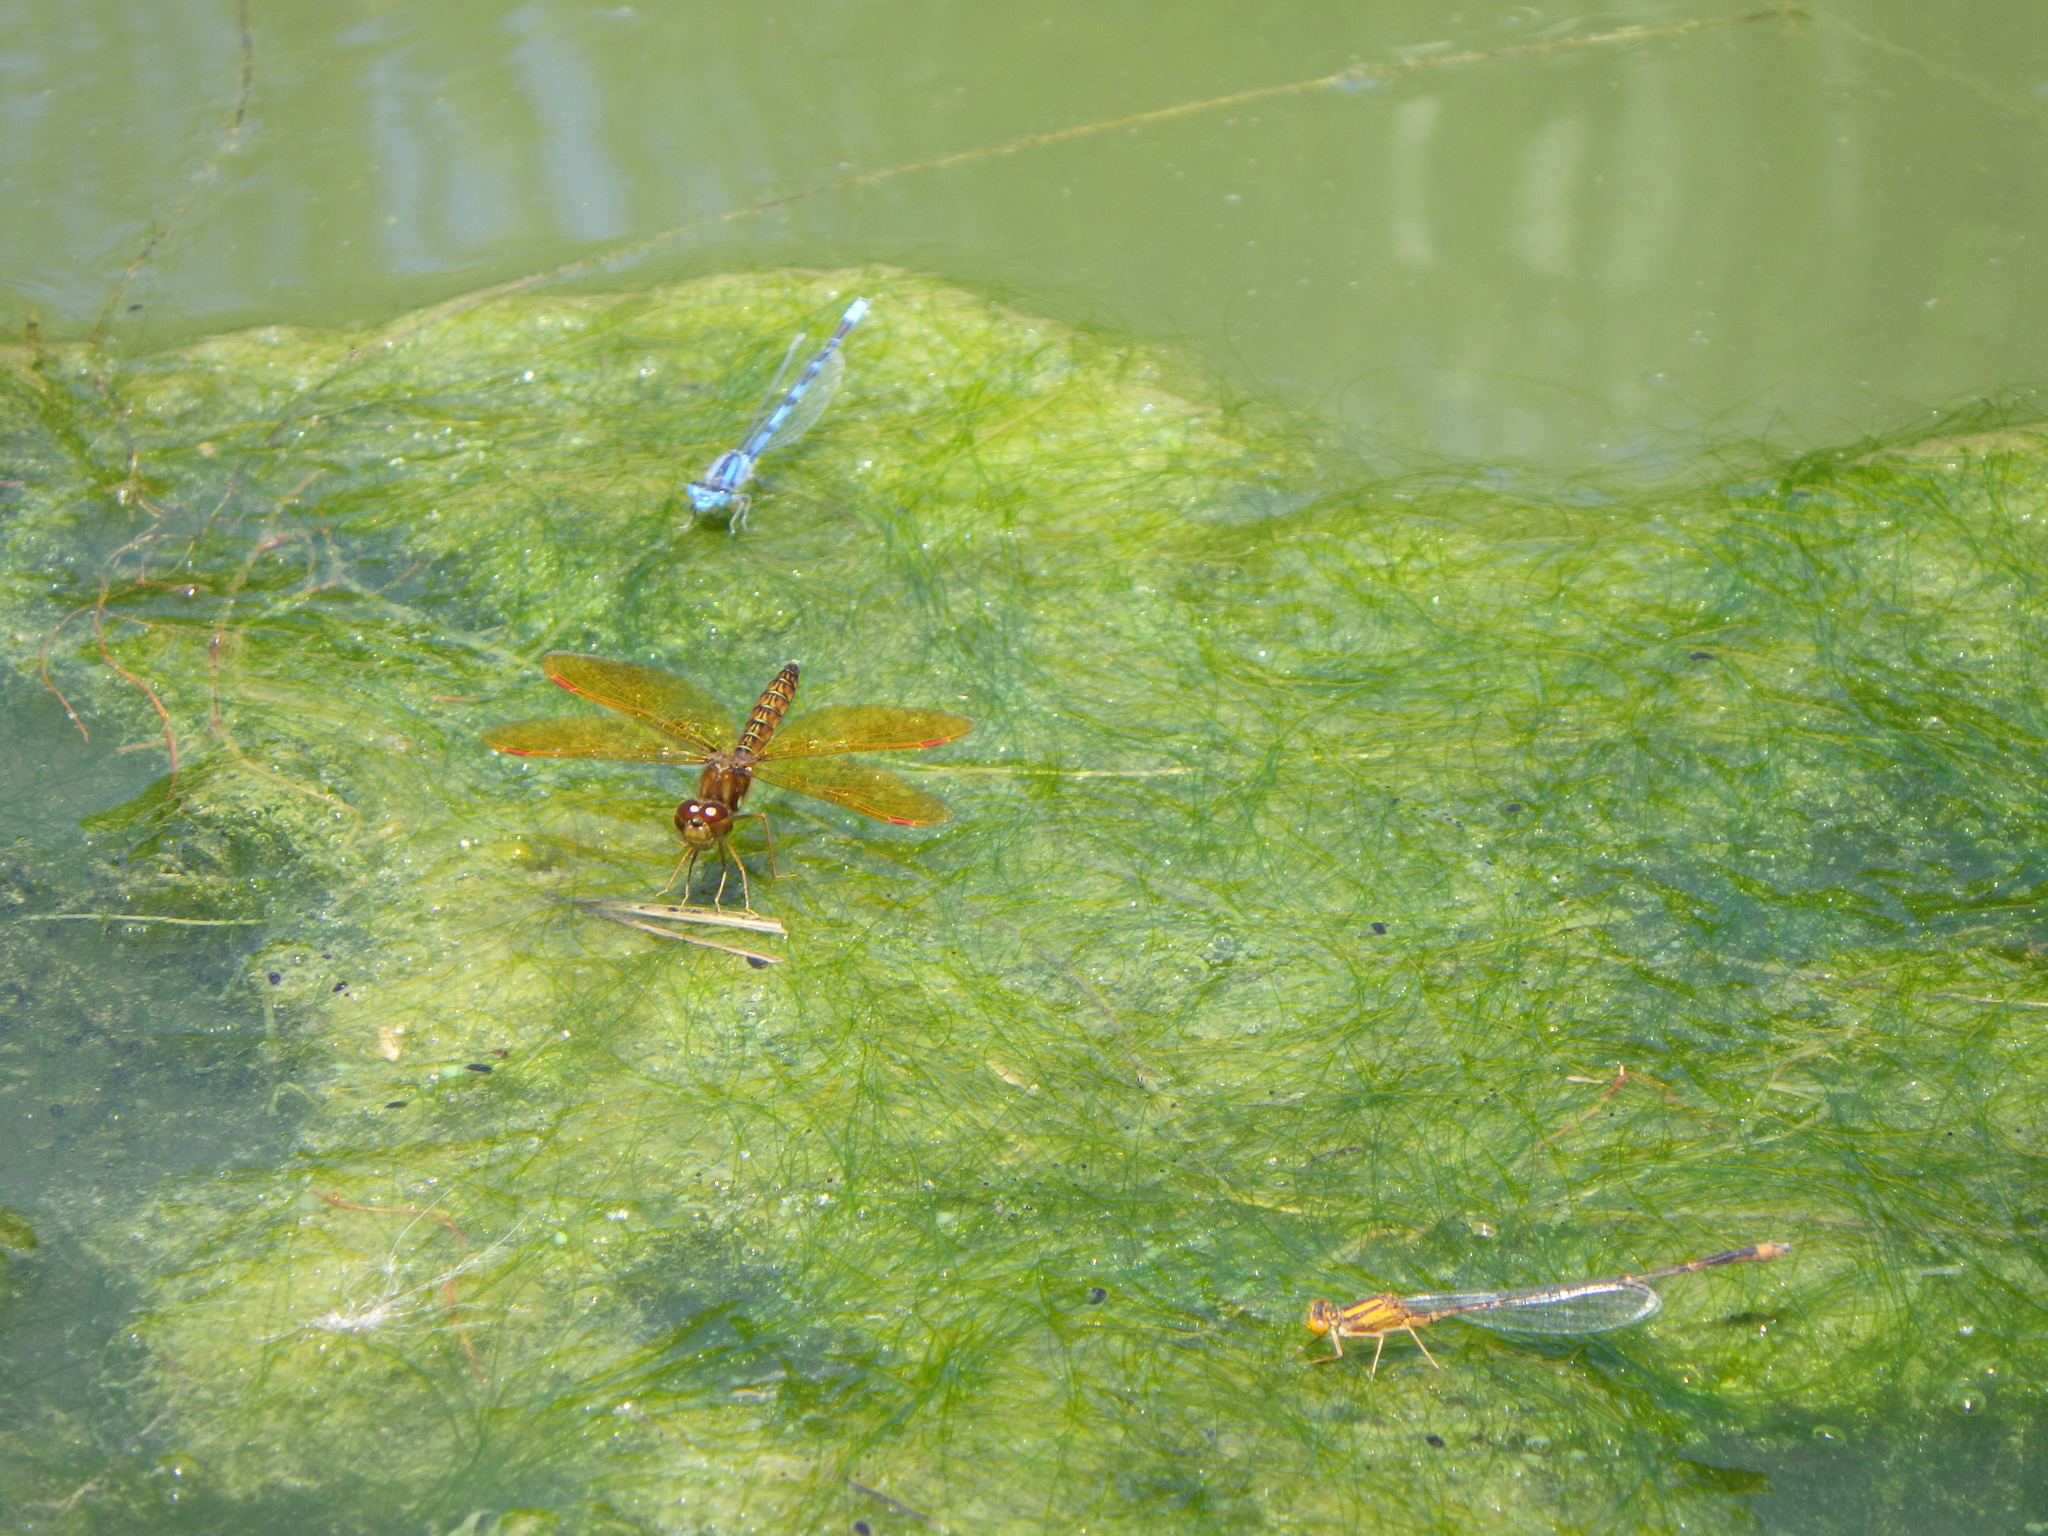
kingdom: Animalia
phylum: Arthropoda
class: Insecta
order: Odonata
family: Libellulidae
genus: Perithemis
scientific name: Perithemis tenera
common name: Eastern amberwing
